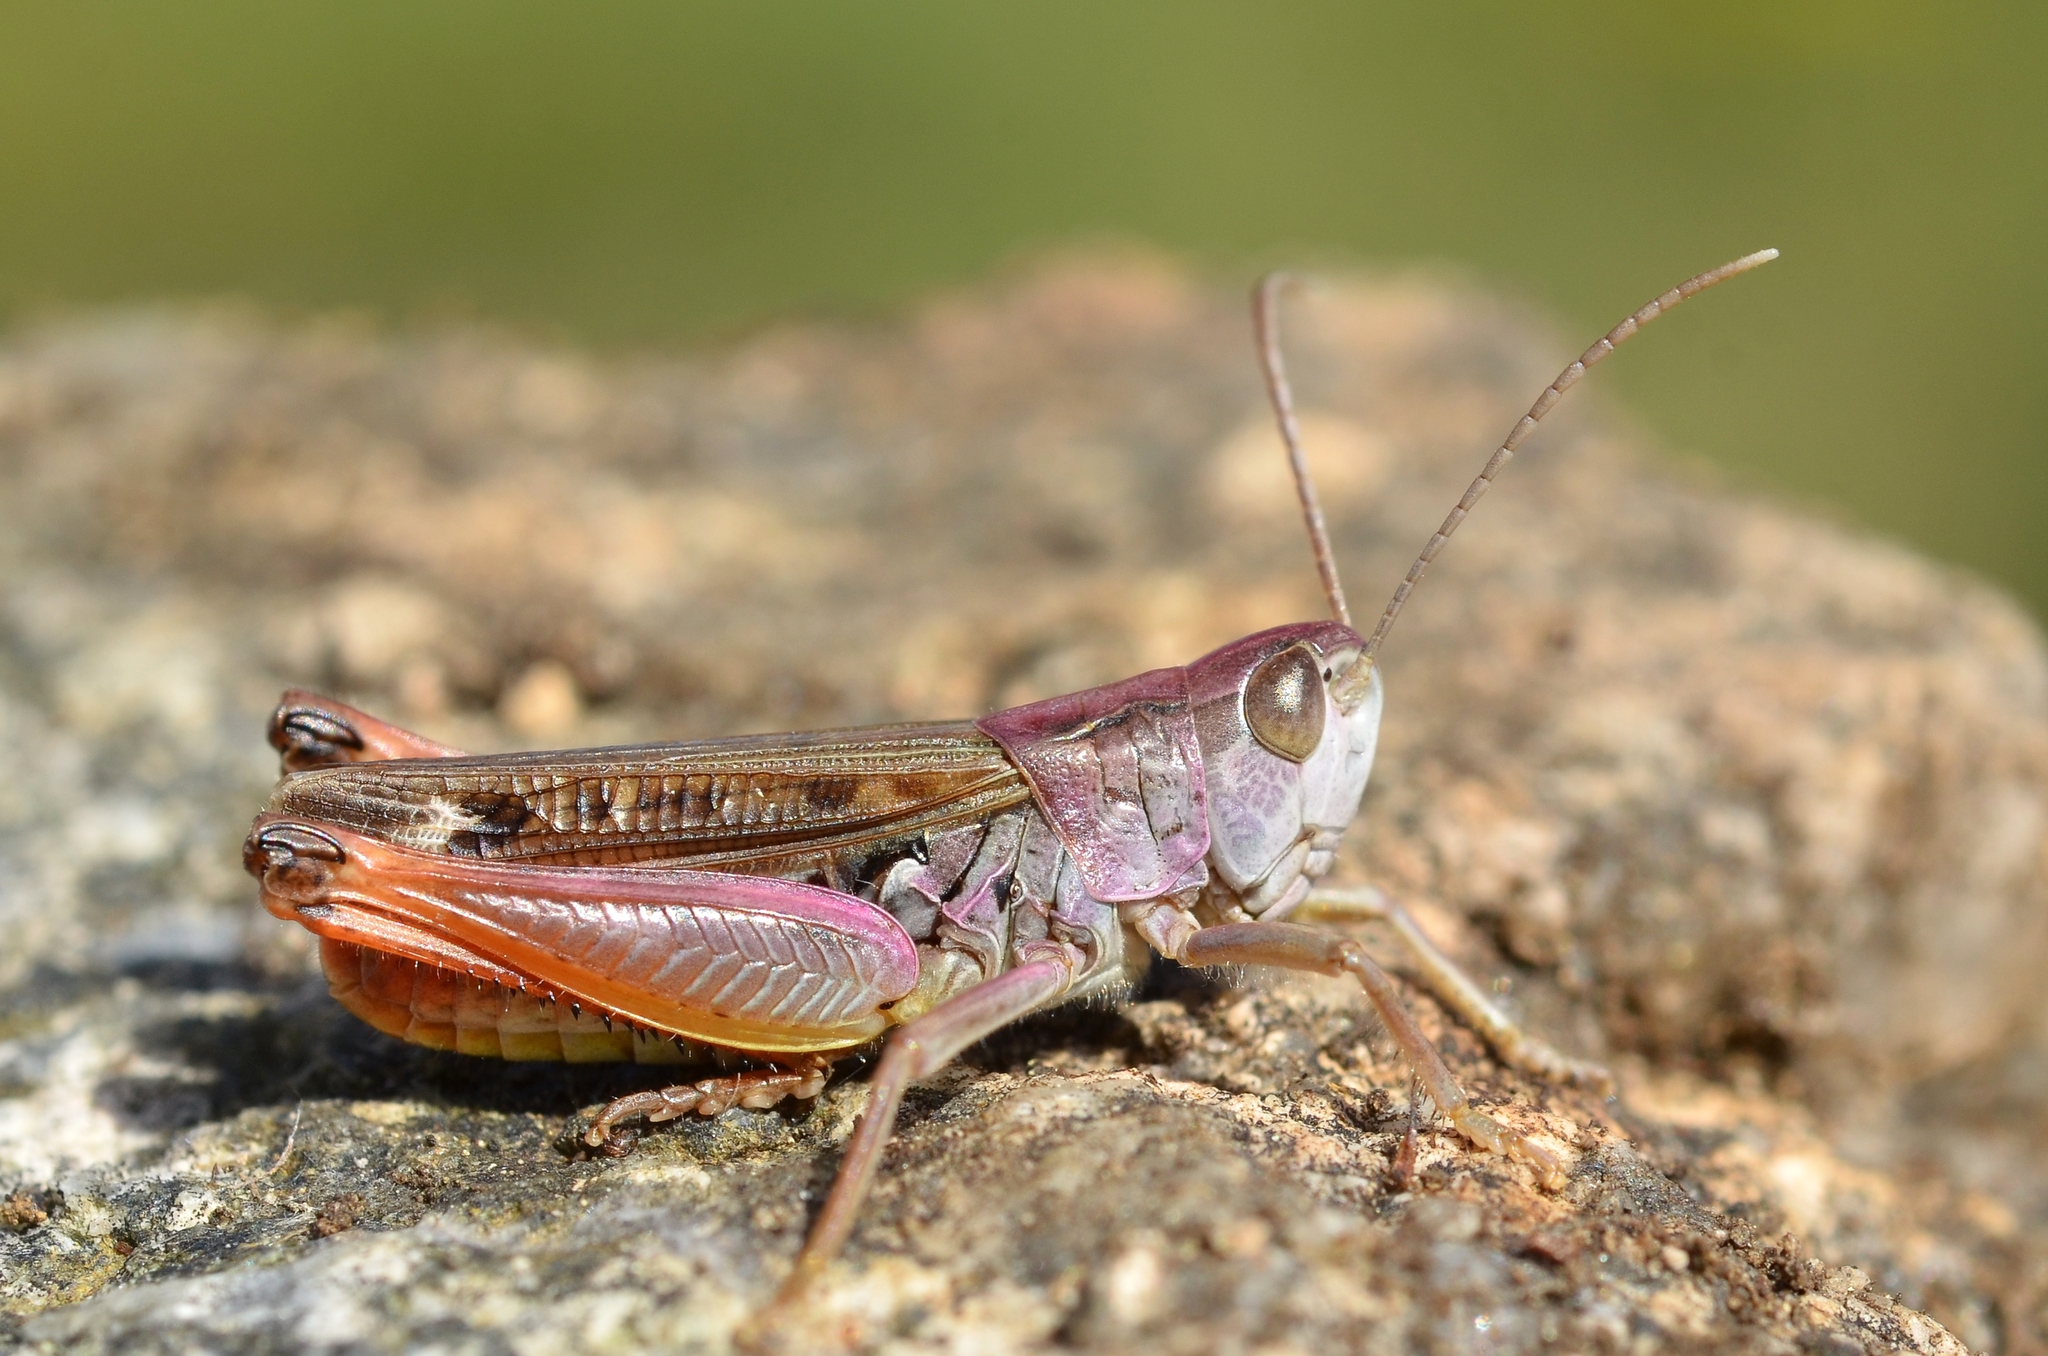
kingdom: Animalia
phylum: Arthropoda
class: Insecta
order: Orthoptera
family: Acrididae
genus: Stenobothrus
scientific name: Stenobothrus nigromaculatus
